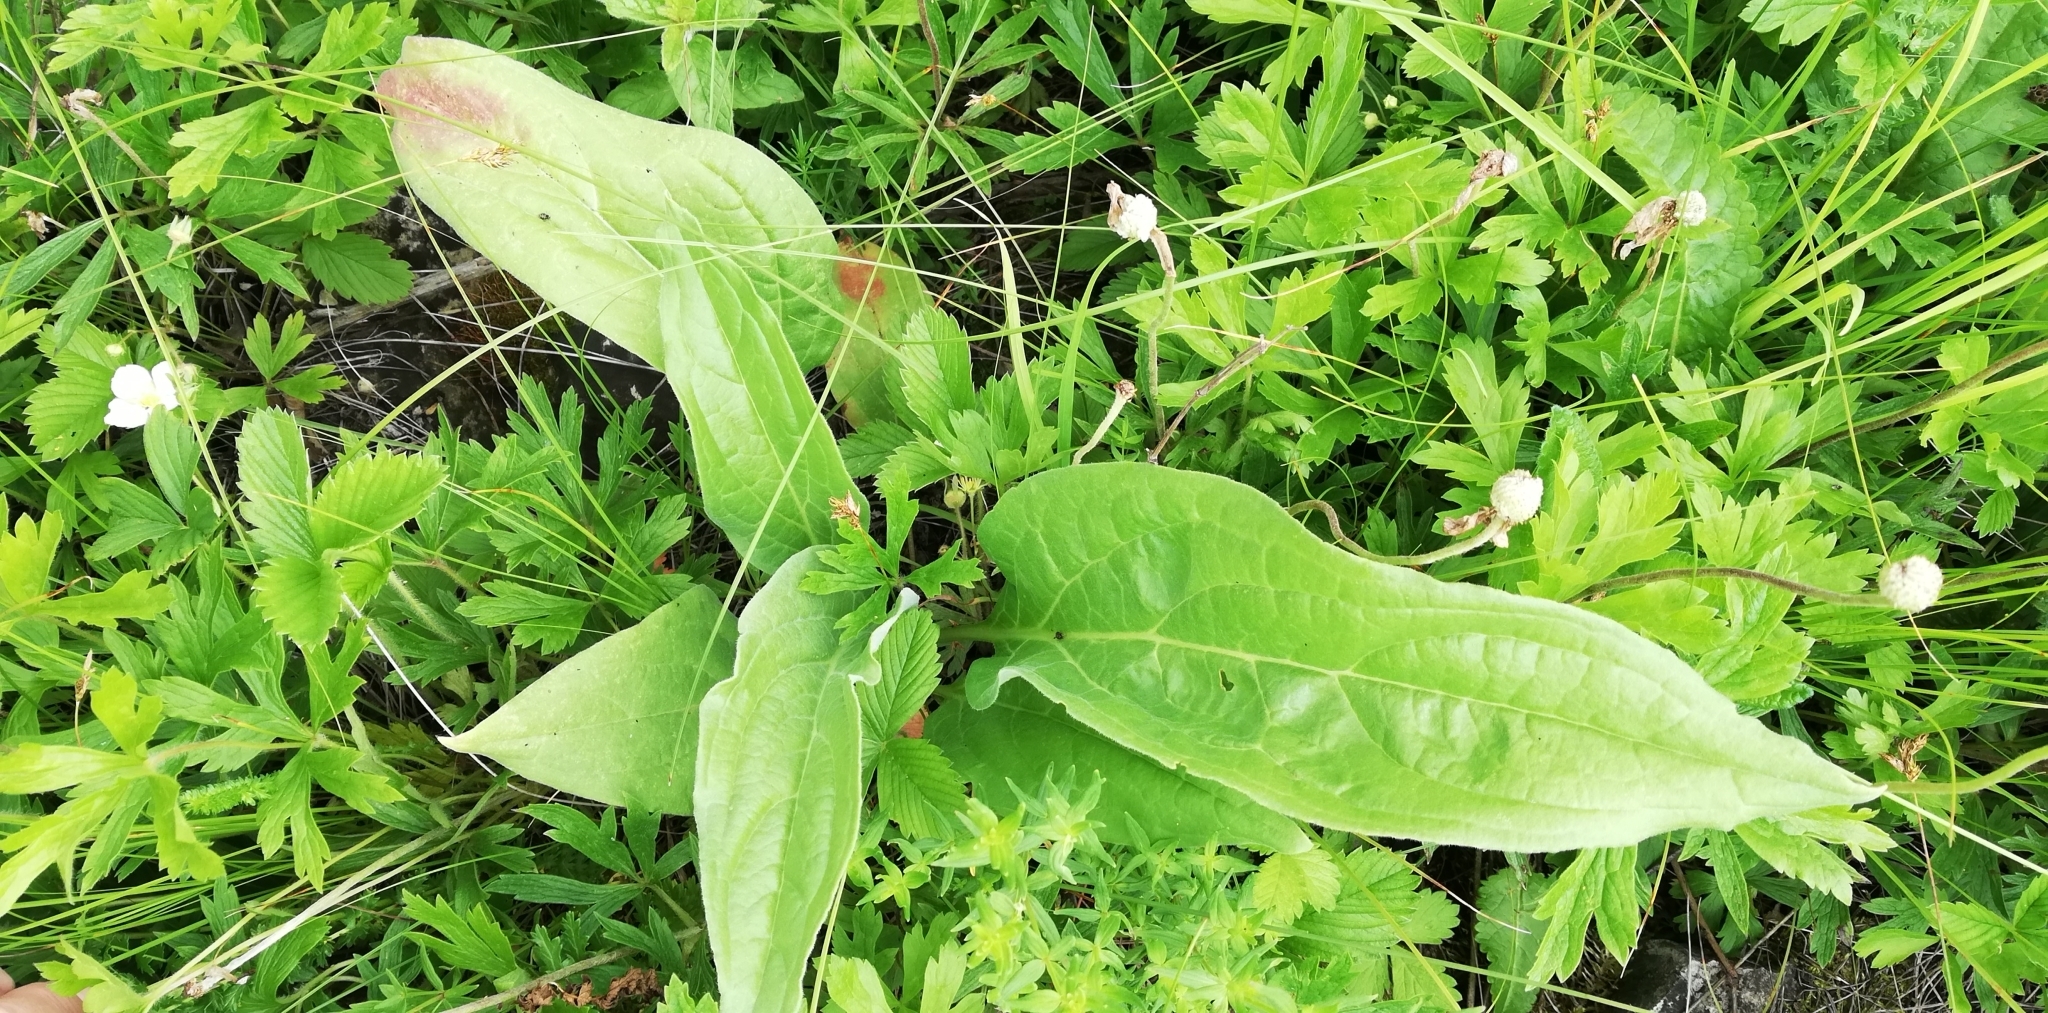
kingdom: Plantae
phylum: Tracheophyta
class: Magnoliopsida
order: Boraginales
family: Boraginaceae
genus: Cynoglossum
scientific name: Cynoglossum officinale
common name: Hound's-tongue
